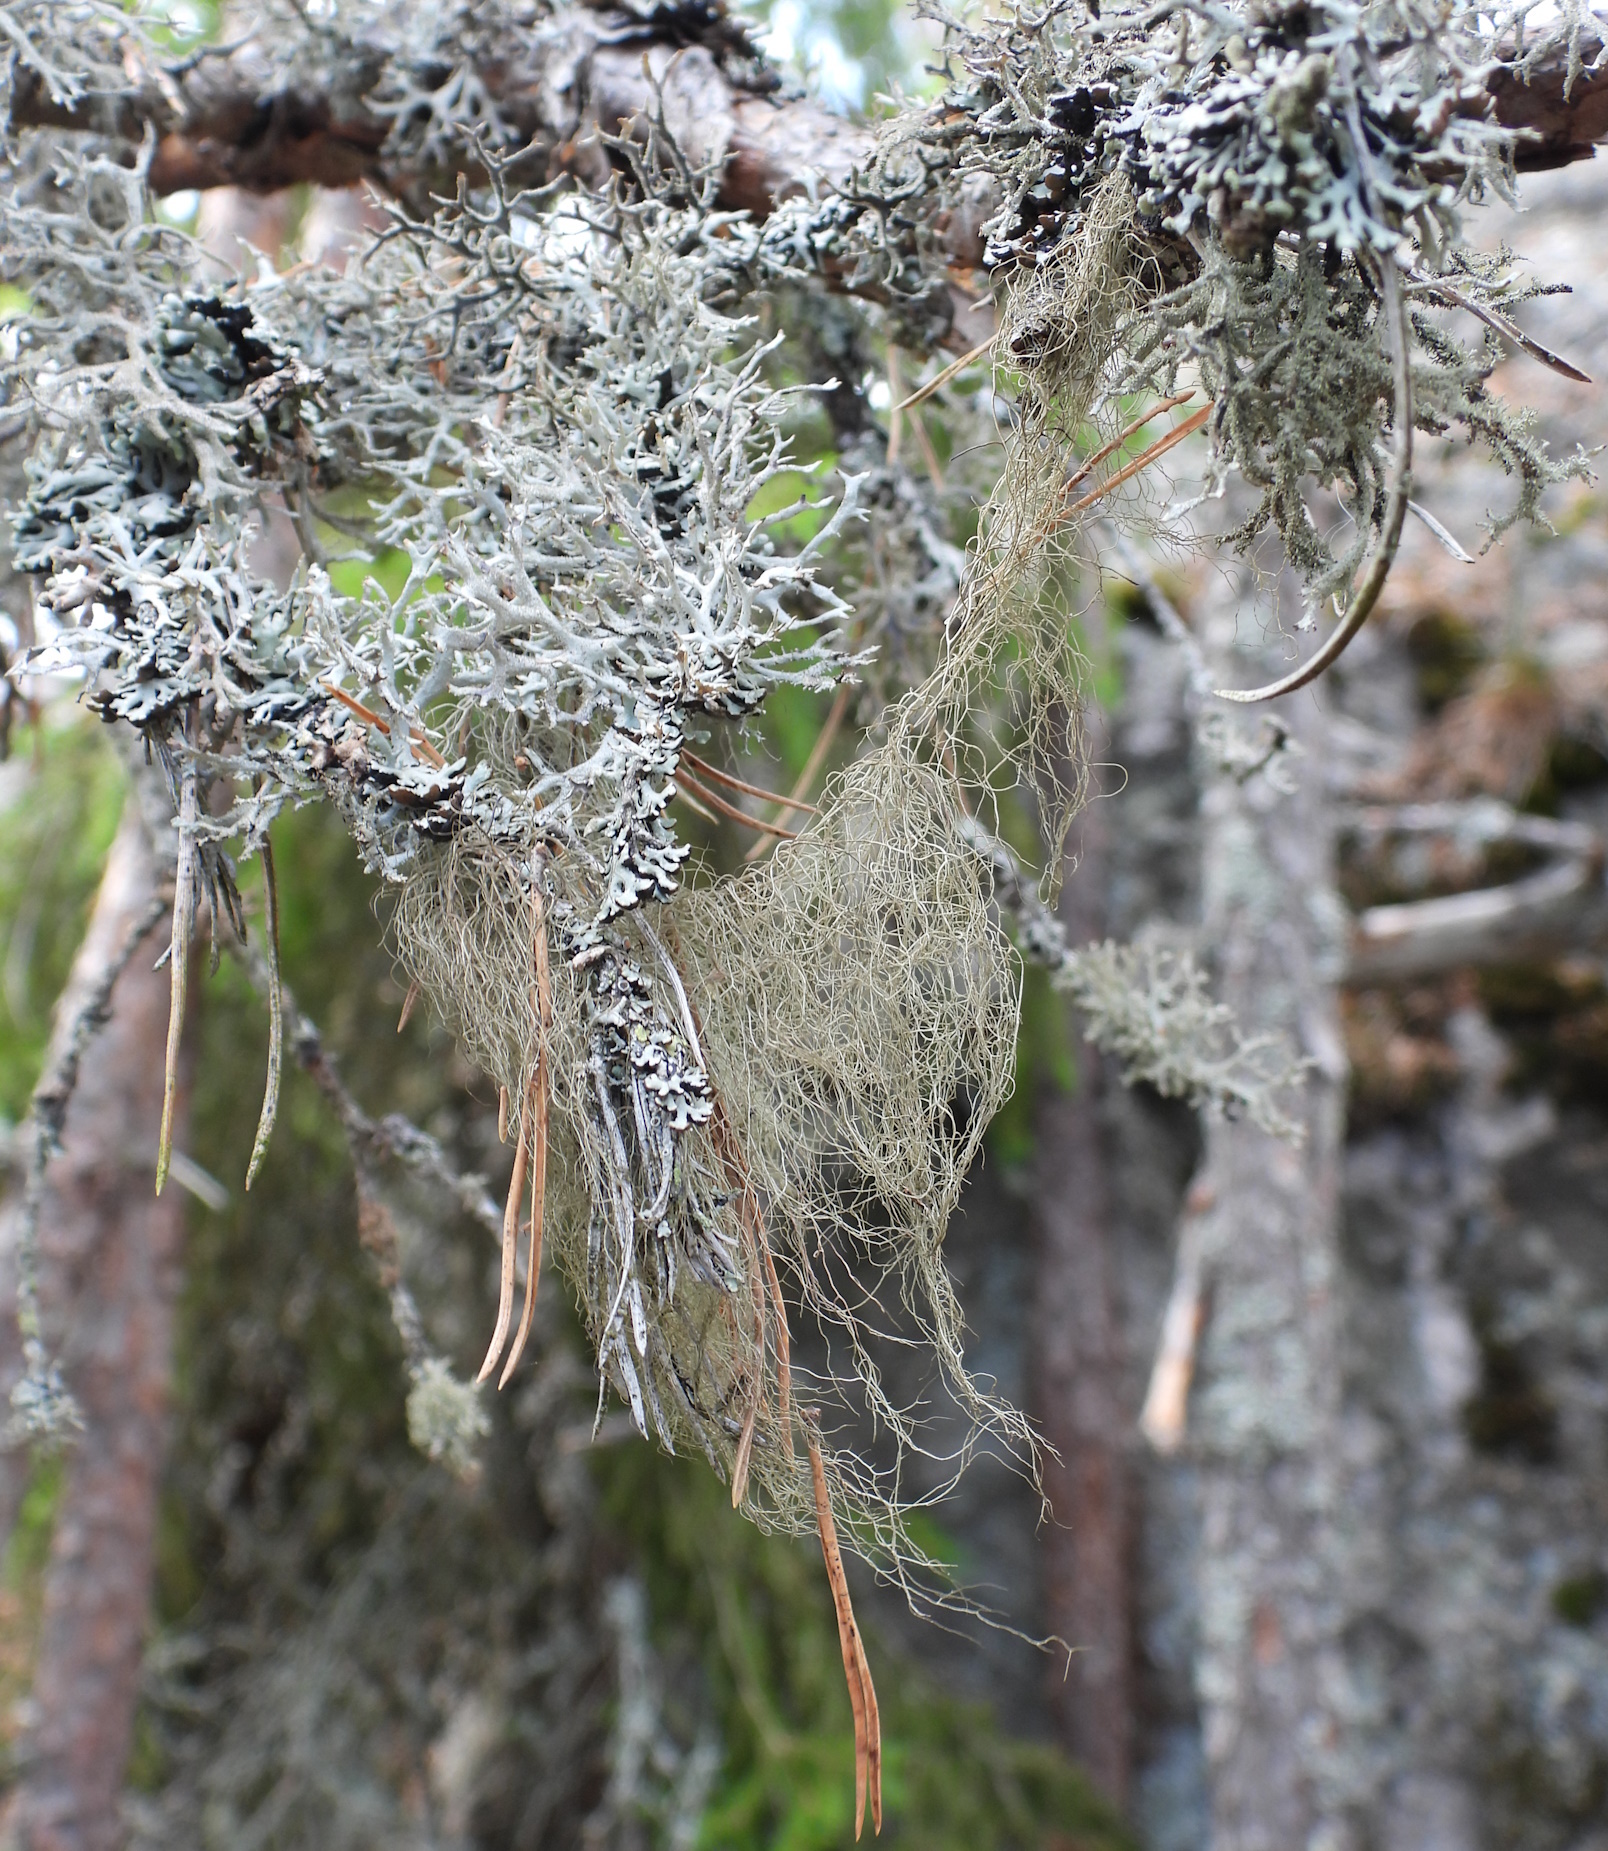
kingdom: Fungi
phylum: Ascomycota
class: Lecanoromycetes
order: Lecanorales
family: Parmeliaceae
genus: Bryoria
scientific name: Bryoria fuscescens
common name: Pale-footed horsehair lichen
